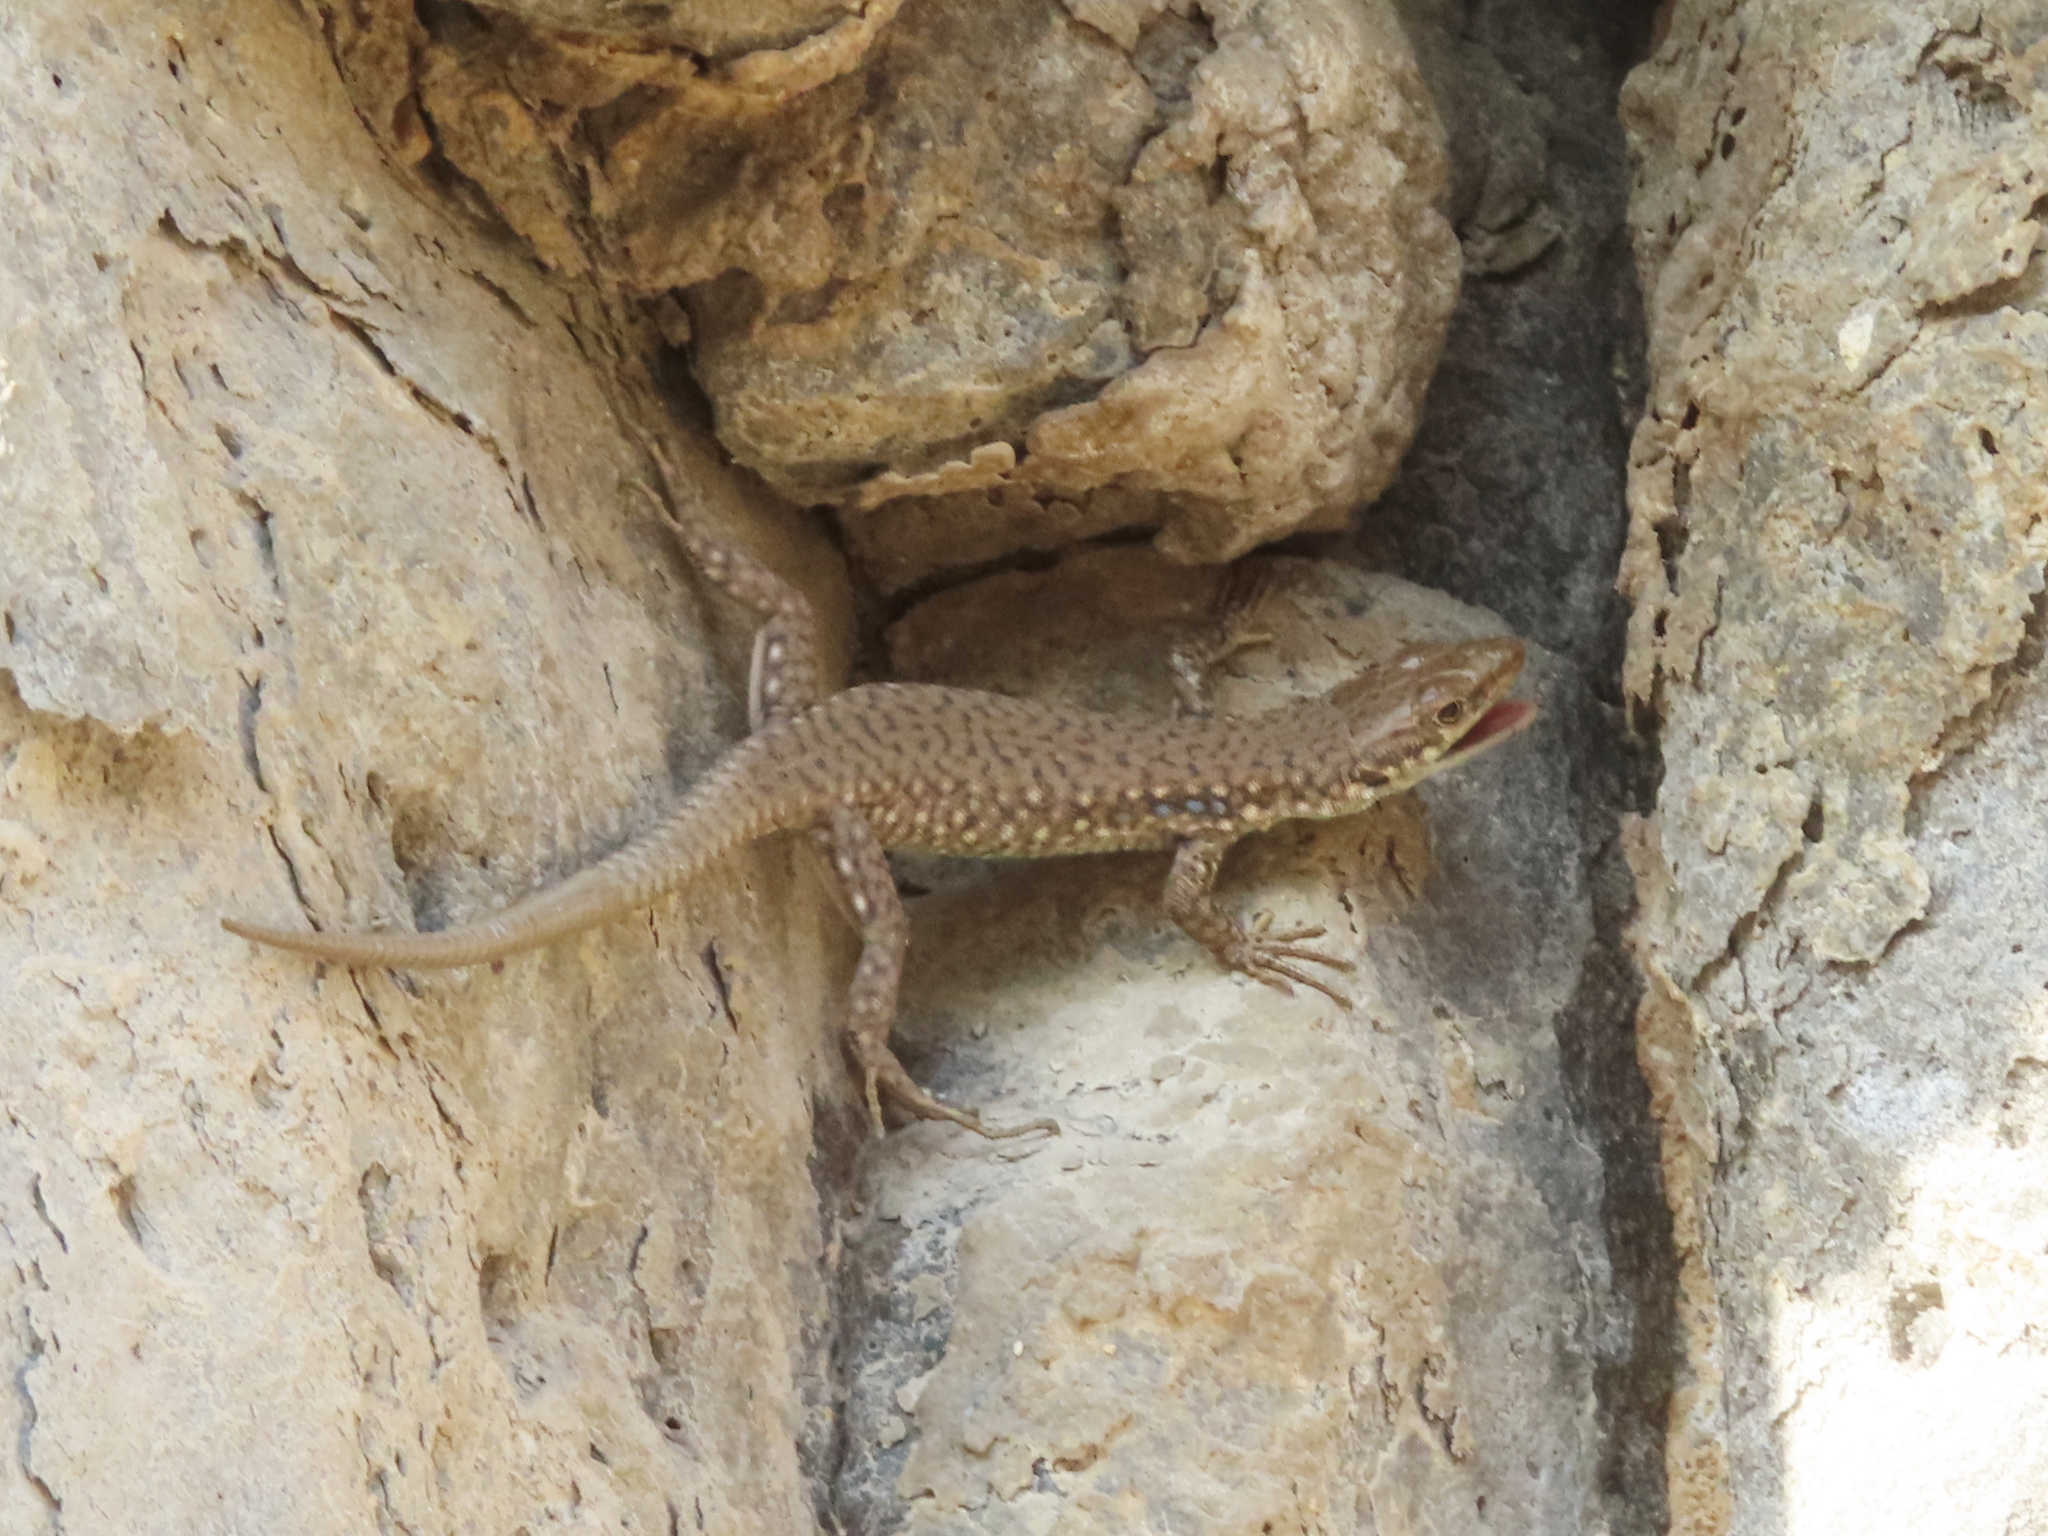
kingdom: Animalia
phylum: Chordata
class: Squamata
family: Lacertidae
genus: Darevskia
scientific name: Darevskia
